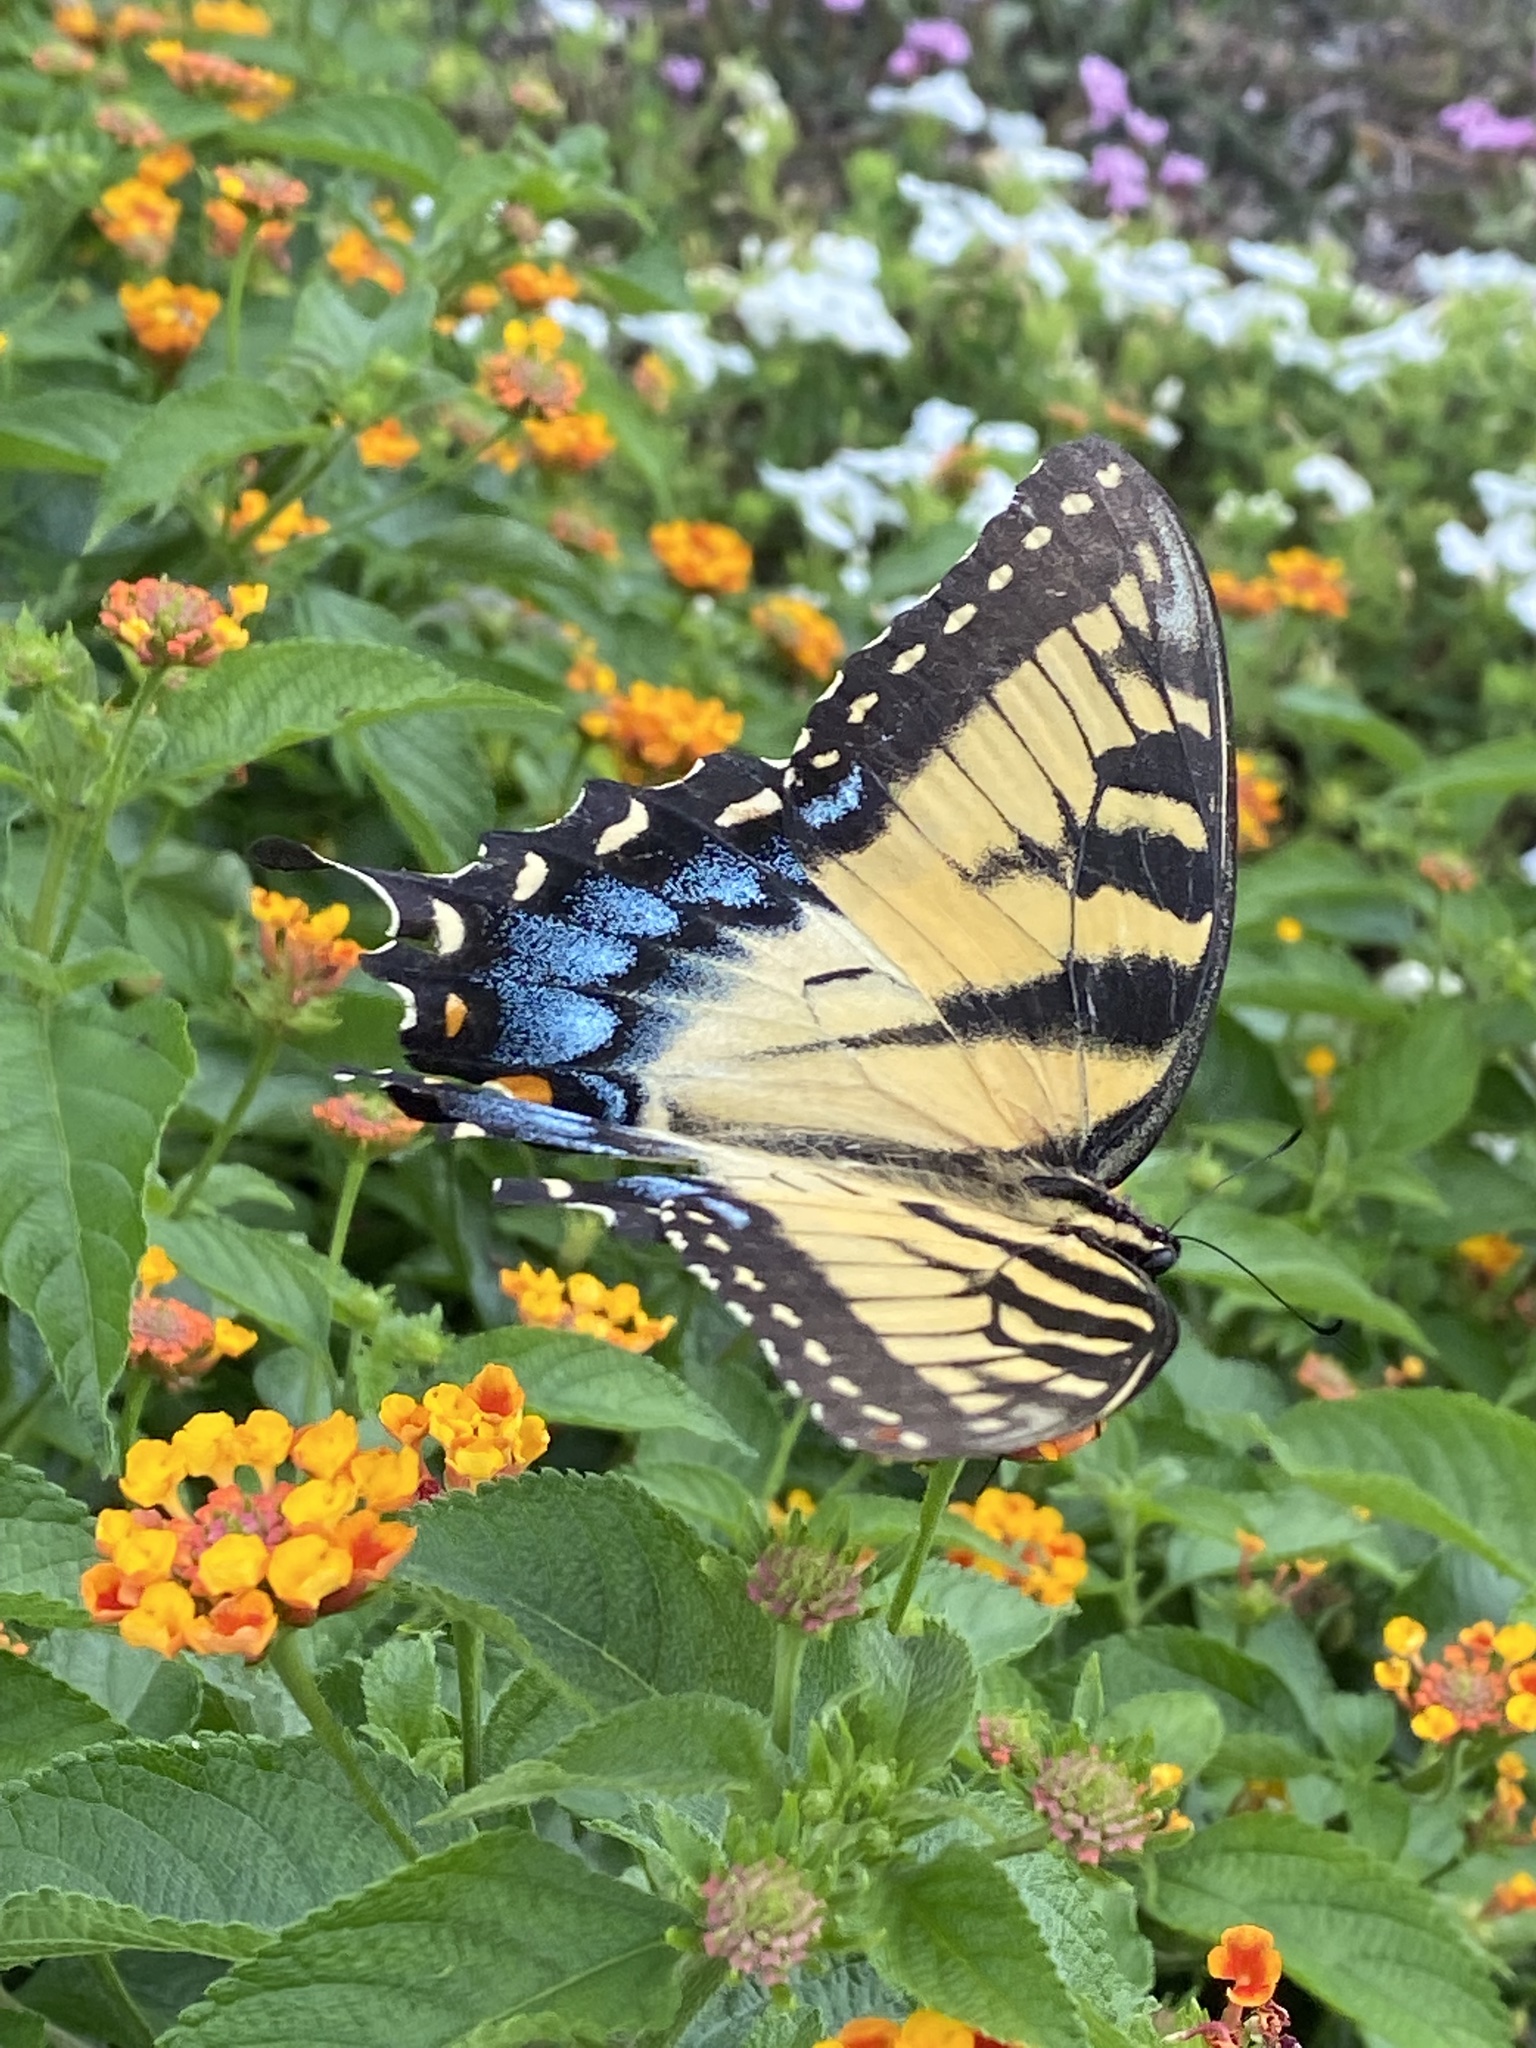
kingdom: Animalia
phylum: Arthropoda
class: Insecta
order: Lepidoptera
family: Papilionidae
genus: Papilio
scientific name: Papilio glaucus
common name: Tiger swallowtail
